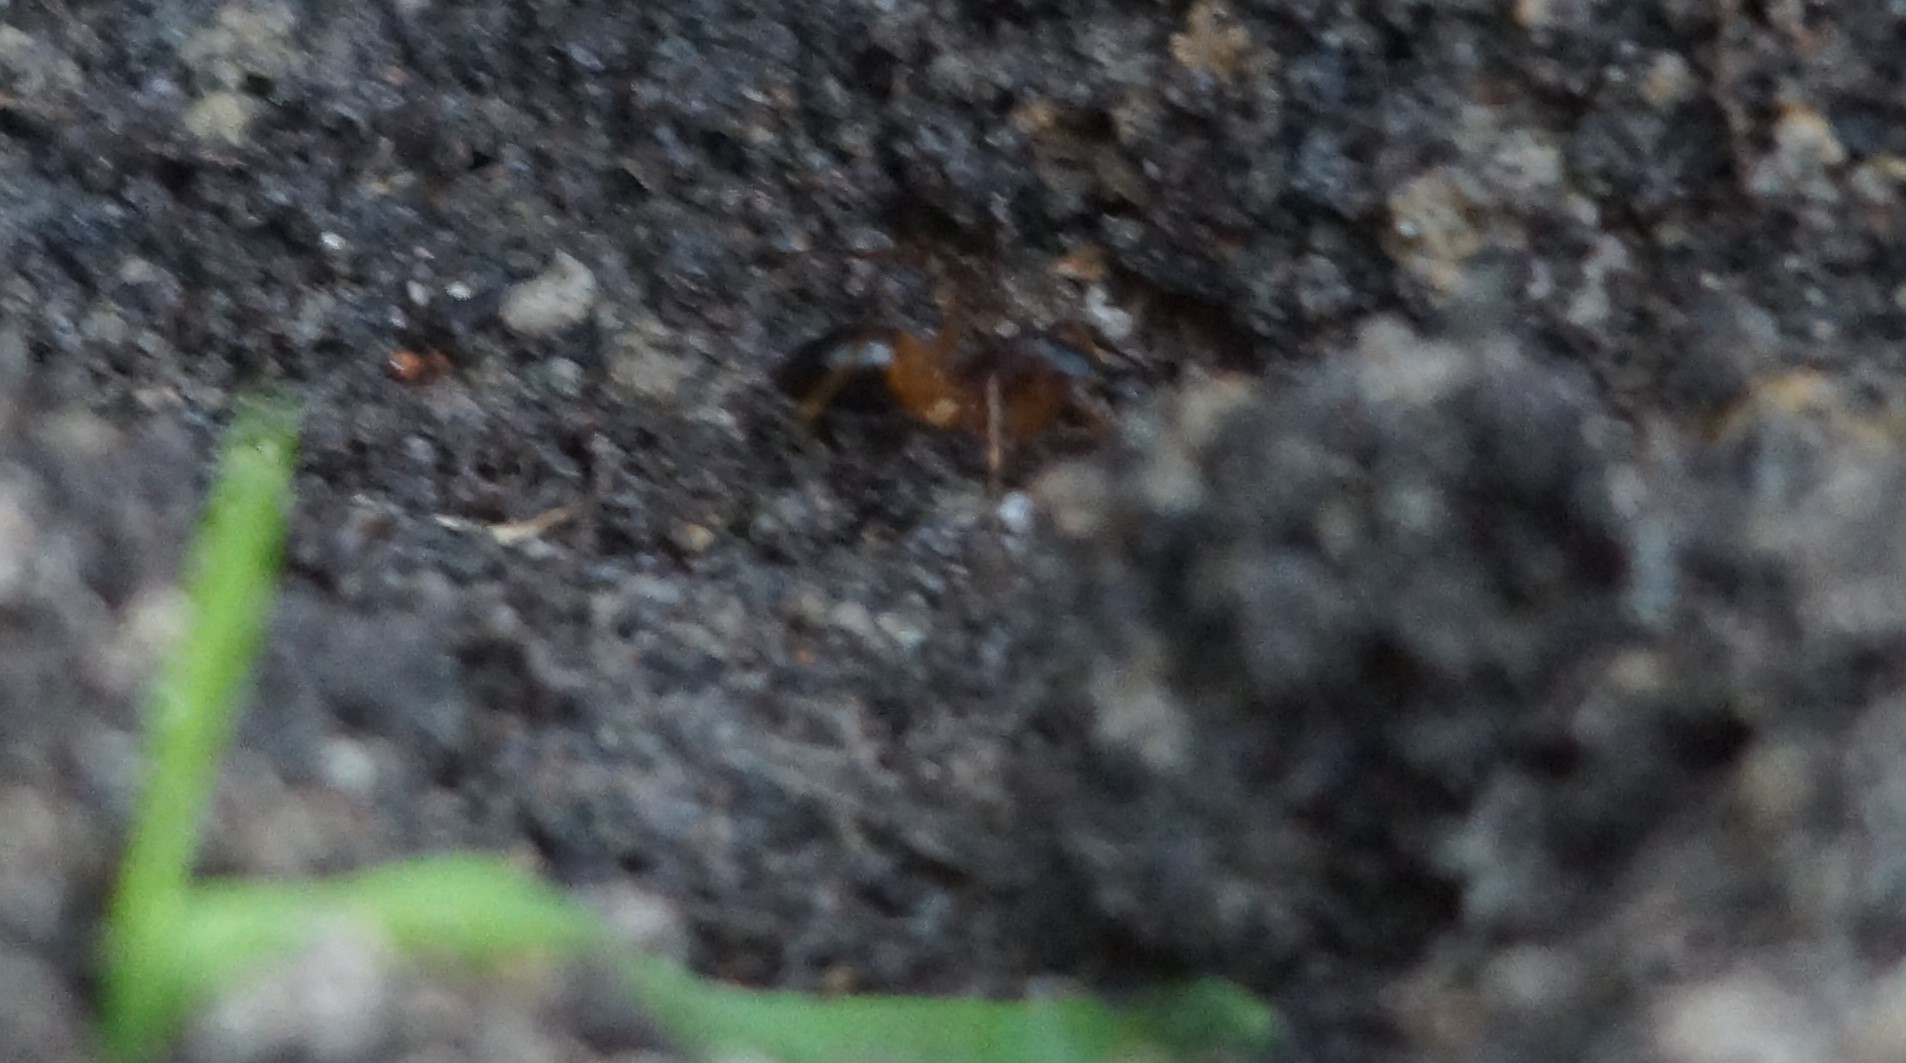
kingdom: Animalia
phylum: Arthropoda
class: Insecta
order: Hymenoptera
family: Formicidae
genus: Camponotus
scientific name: Camponotus consobrinus
